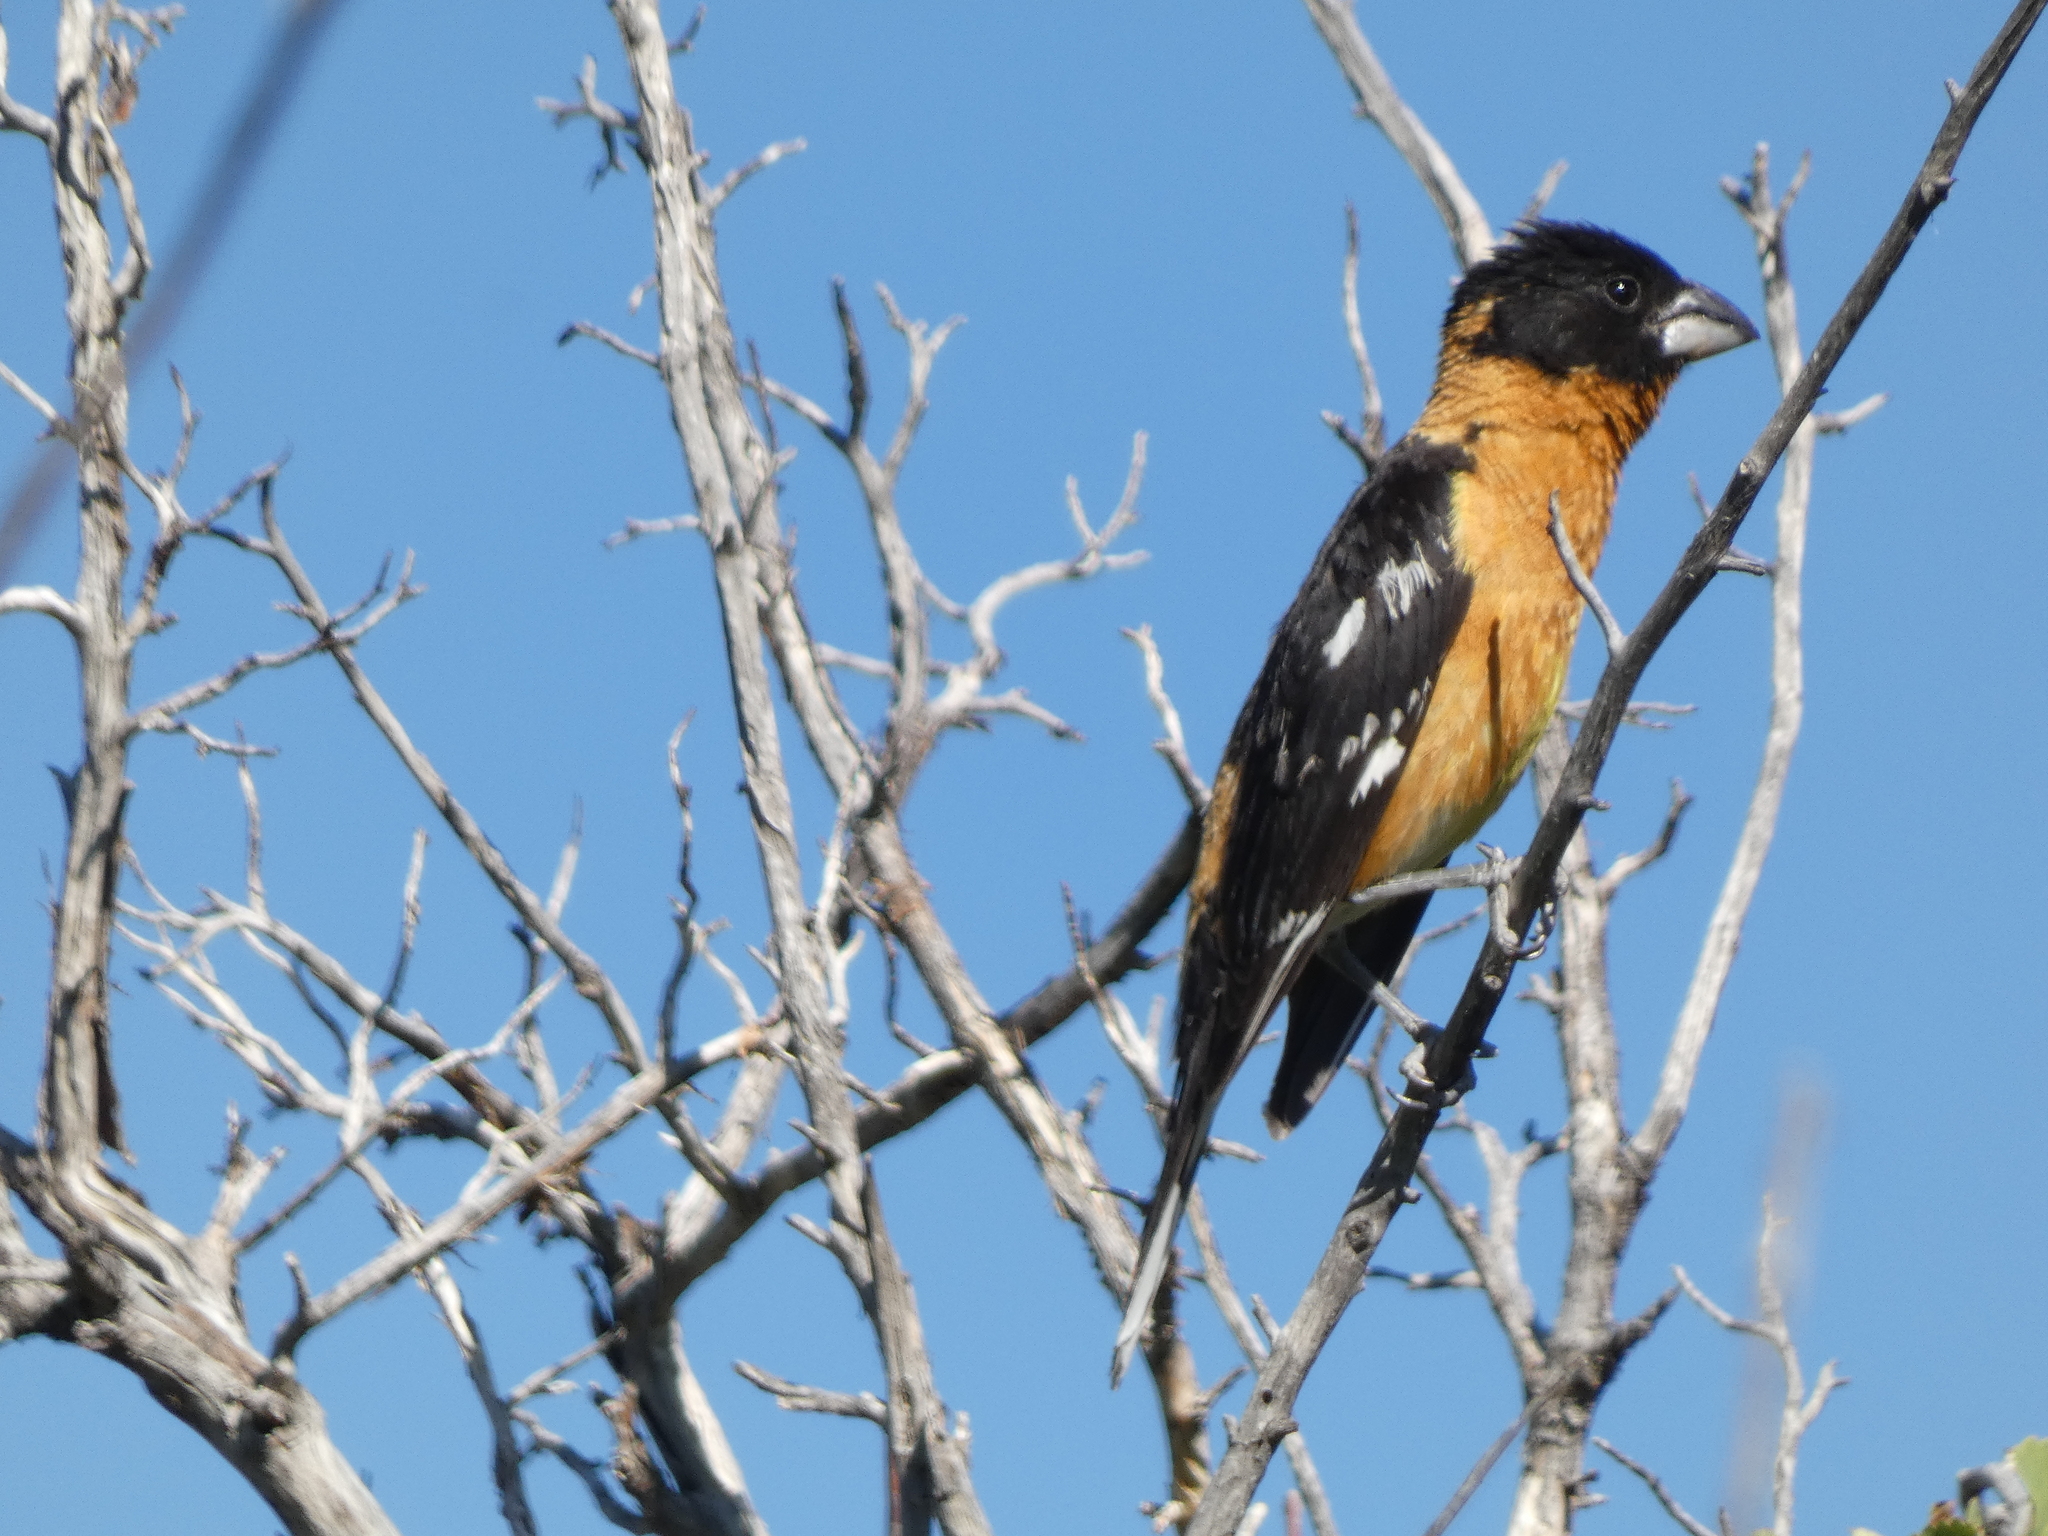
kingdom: Animalia
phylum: Chordata
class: Aves
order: Passeriformes
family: Cardinalidae
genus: Pheucticus
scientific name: Pheucticus melanocephalus
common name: Black-headed grosbeak
